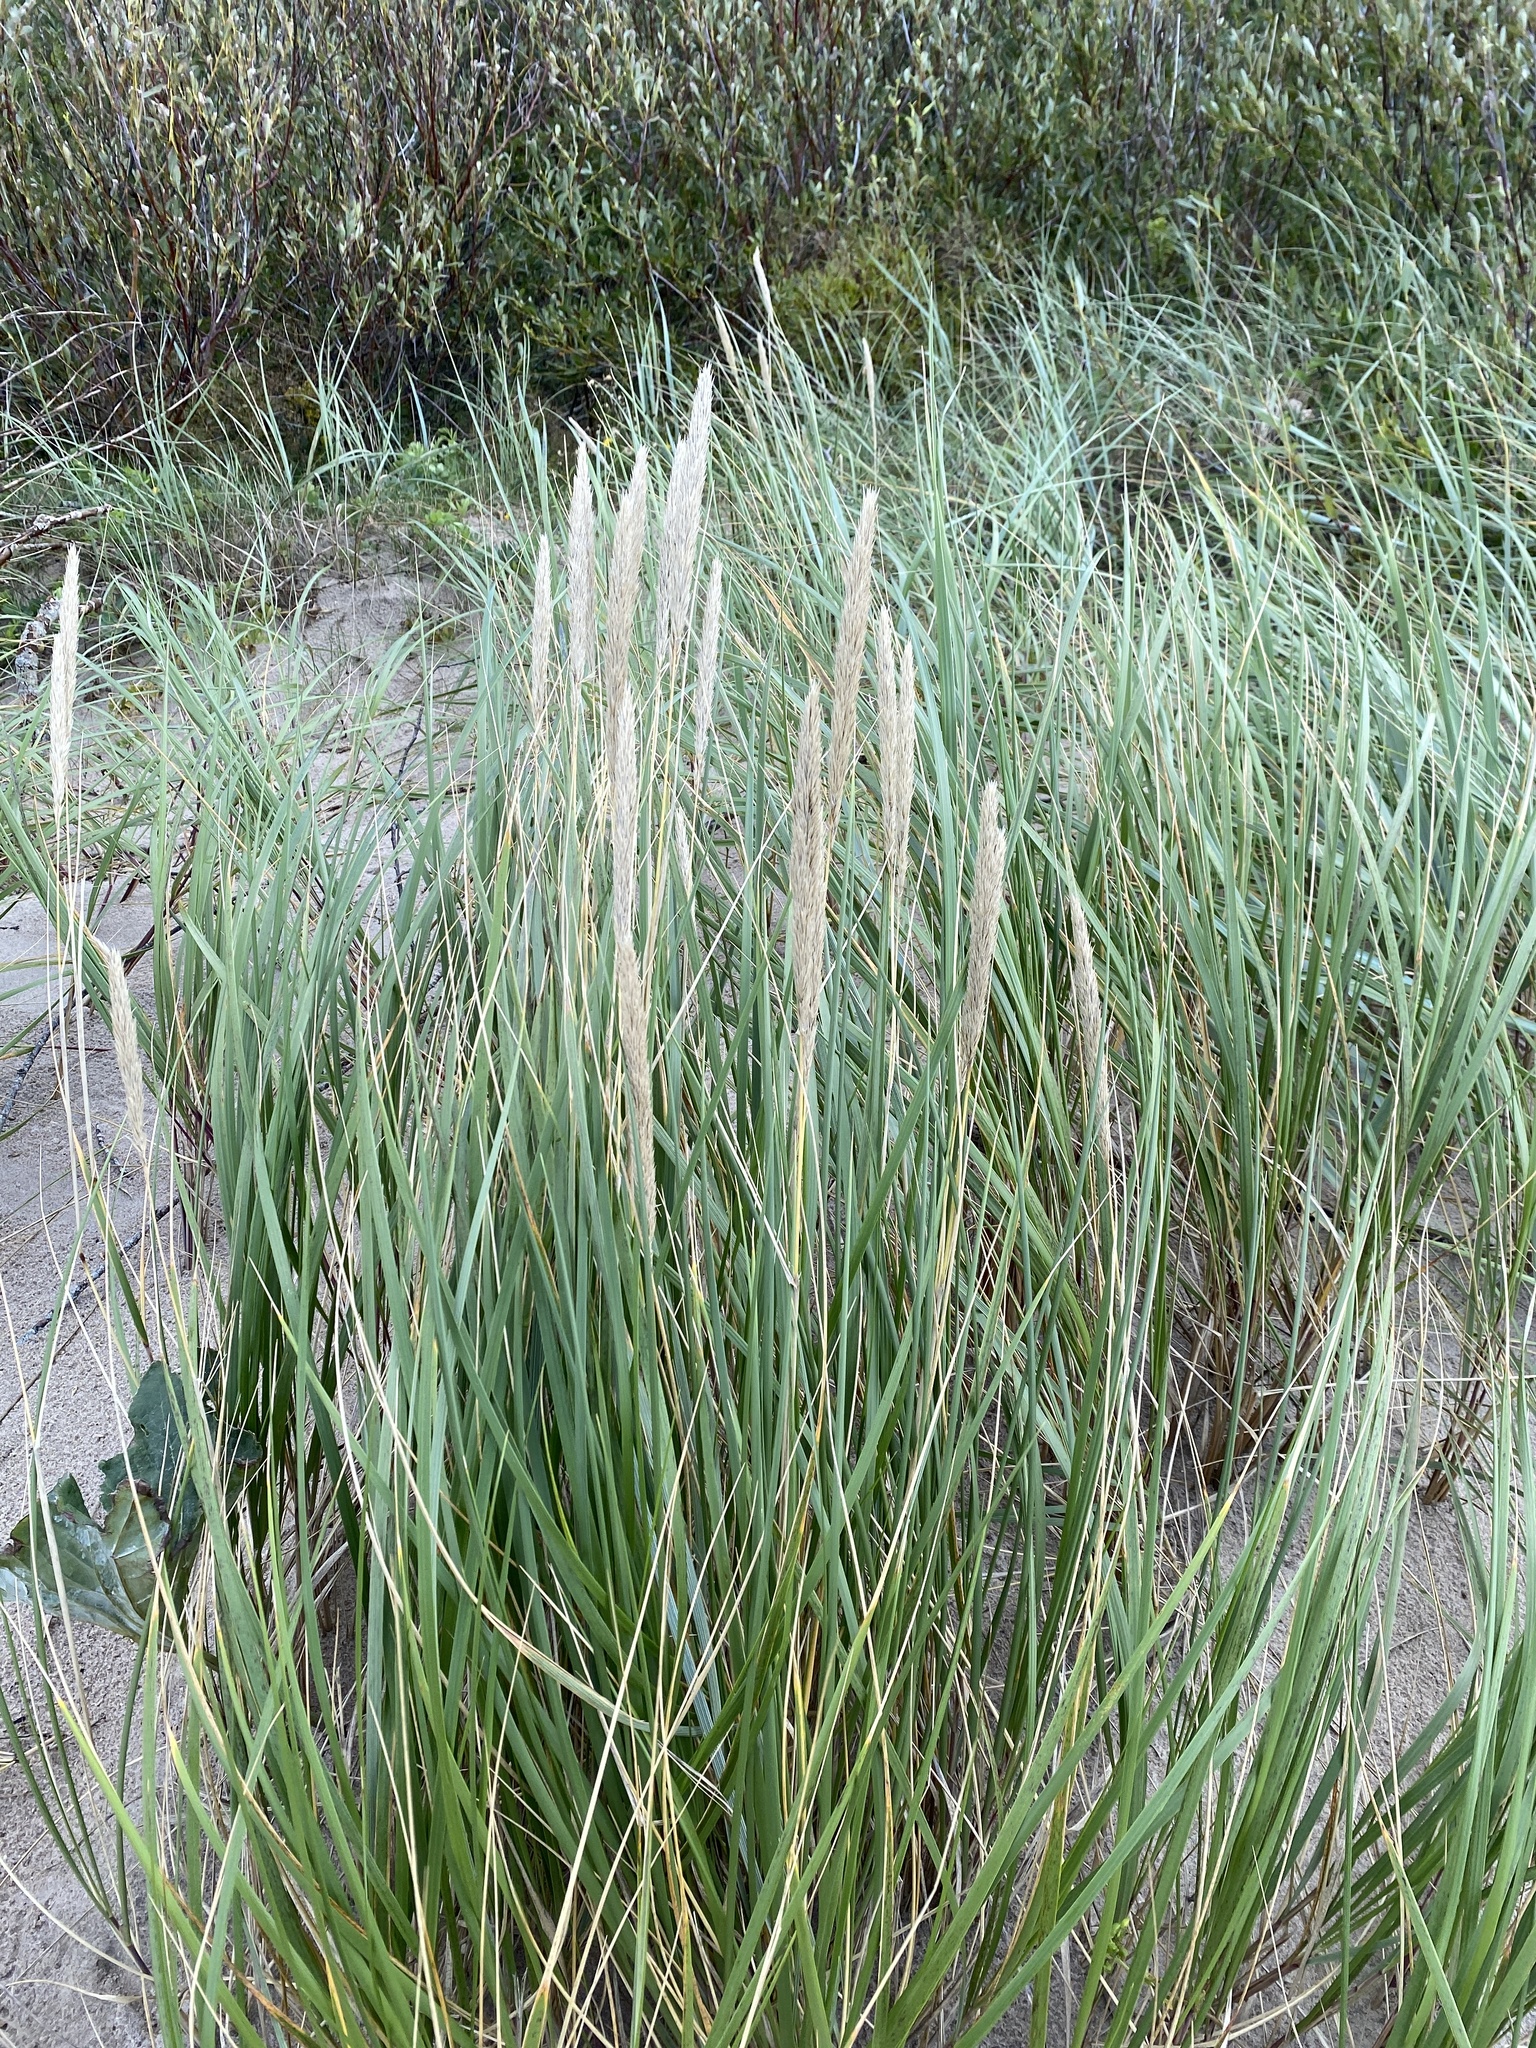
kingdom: Plantae
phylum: Tracheophyta
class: Liliopsida
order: Poales
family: Poaceae
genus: Calamagrostis
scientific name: Calamagrostis arenaria
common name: European beachgrass
